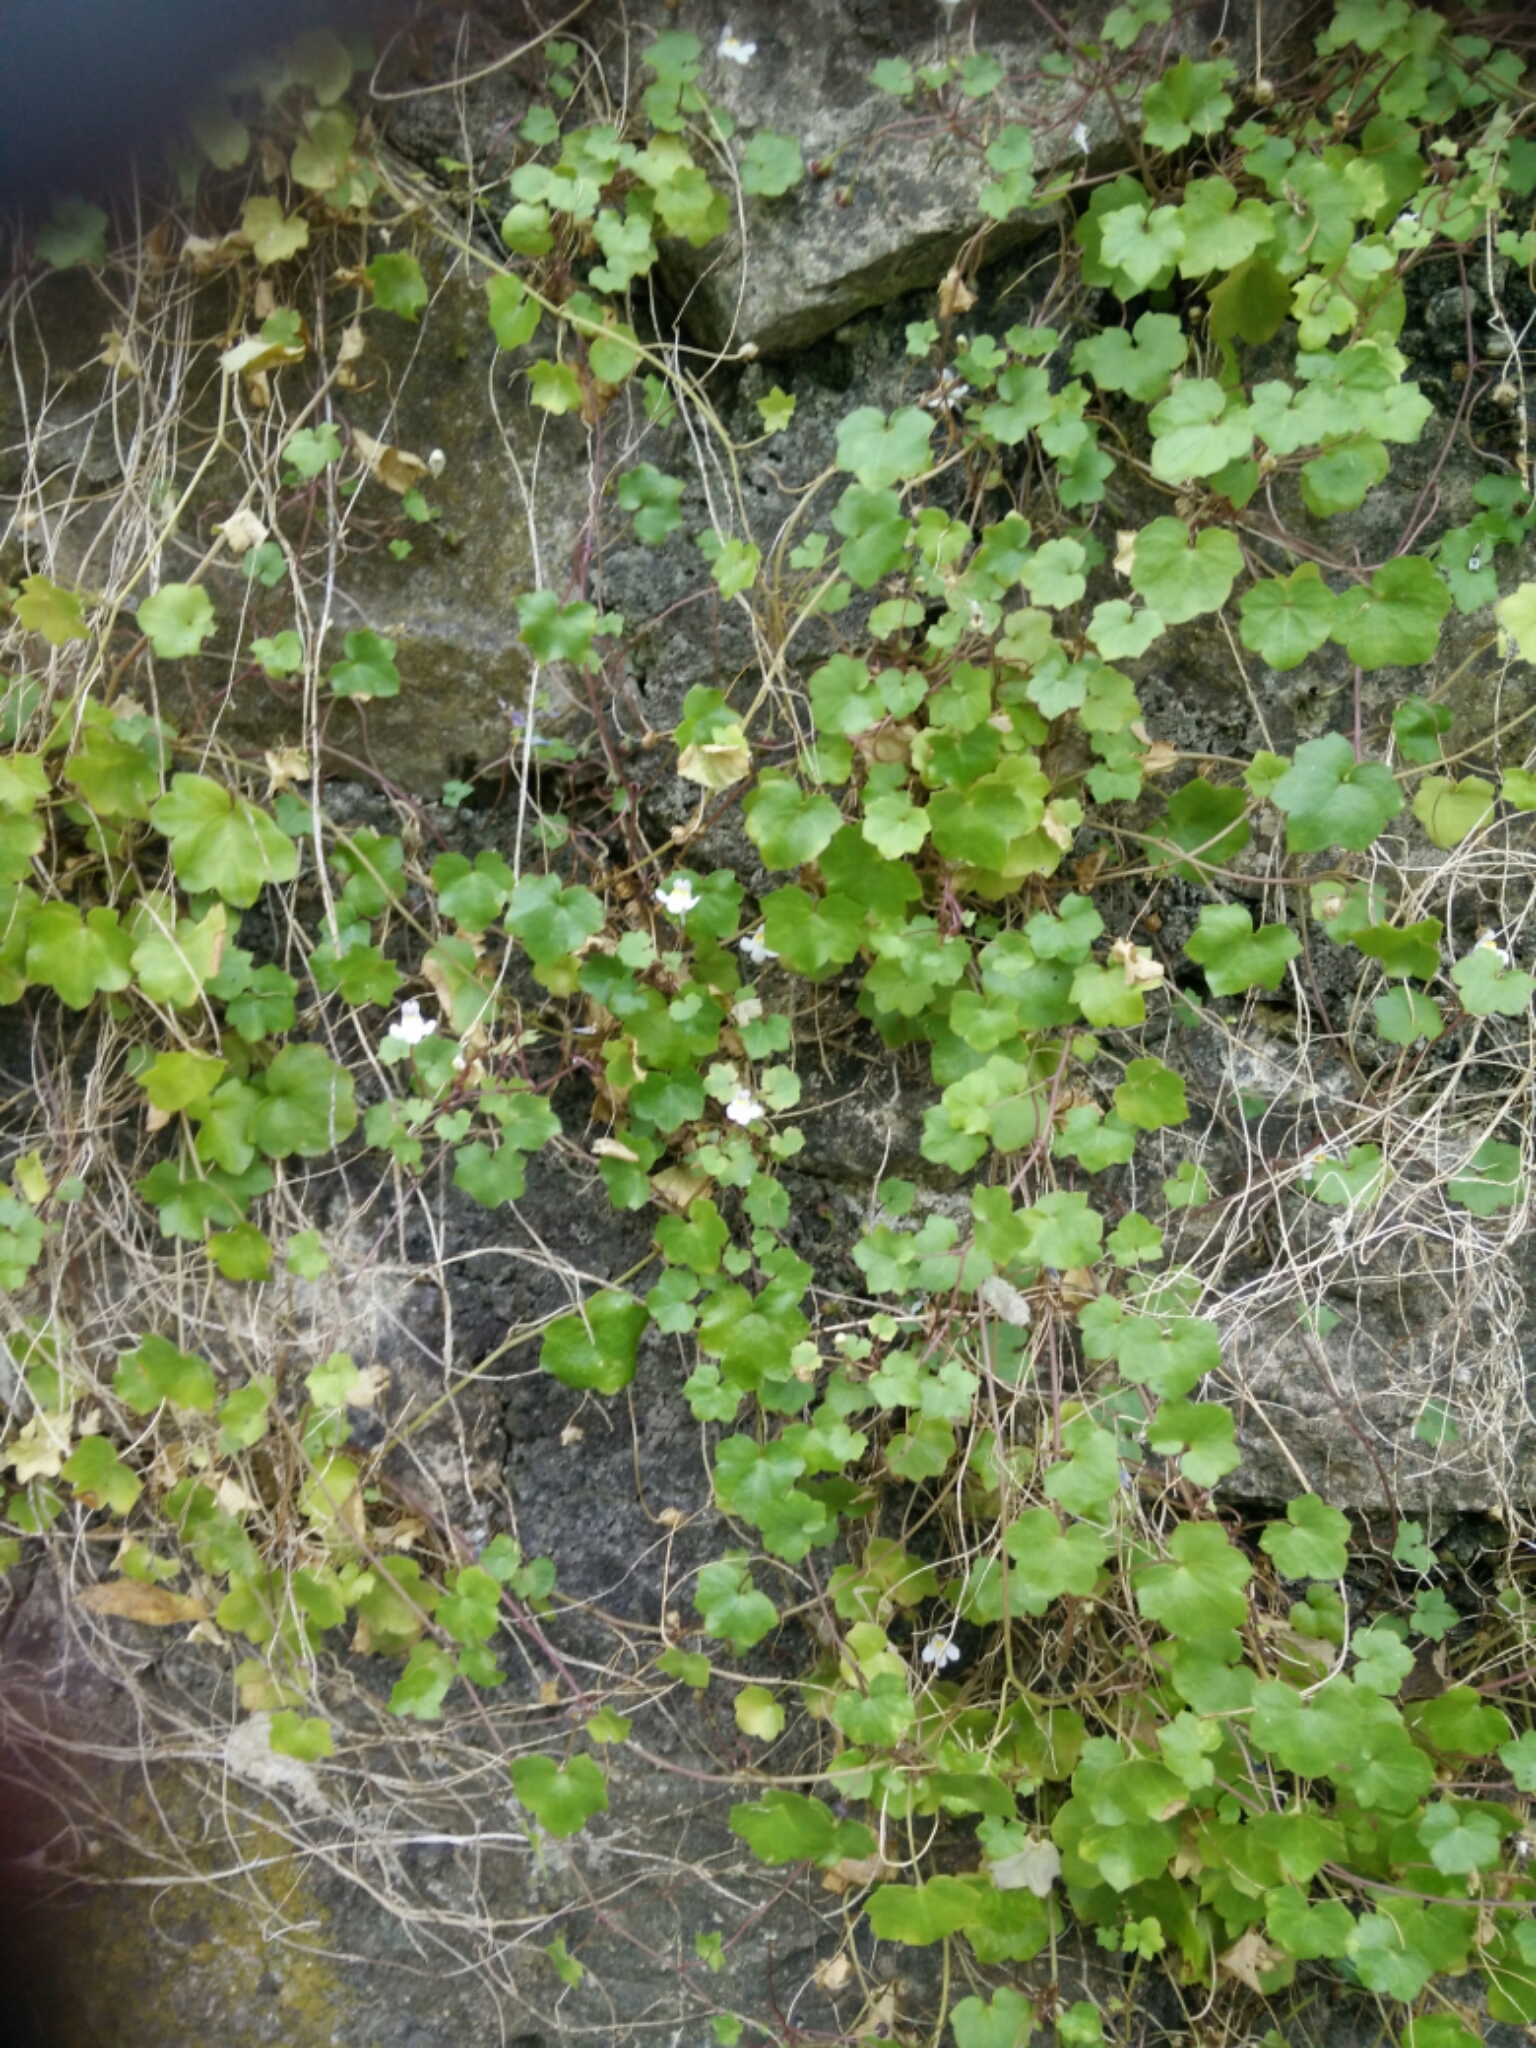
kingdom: Plantae
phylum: Tracheophyta
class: Magnoliopsida
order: Lamiales
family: Plantaginaceae
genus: Cymbalaria
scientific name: Cymbalaria muralis
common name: Ivy-leaved toadflax
